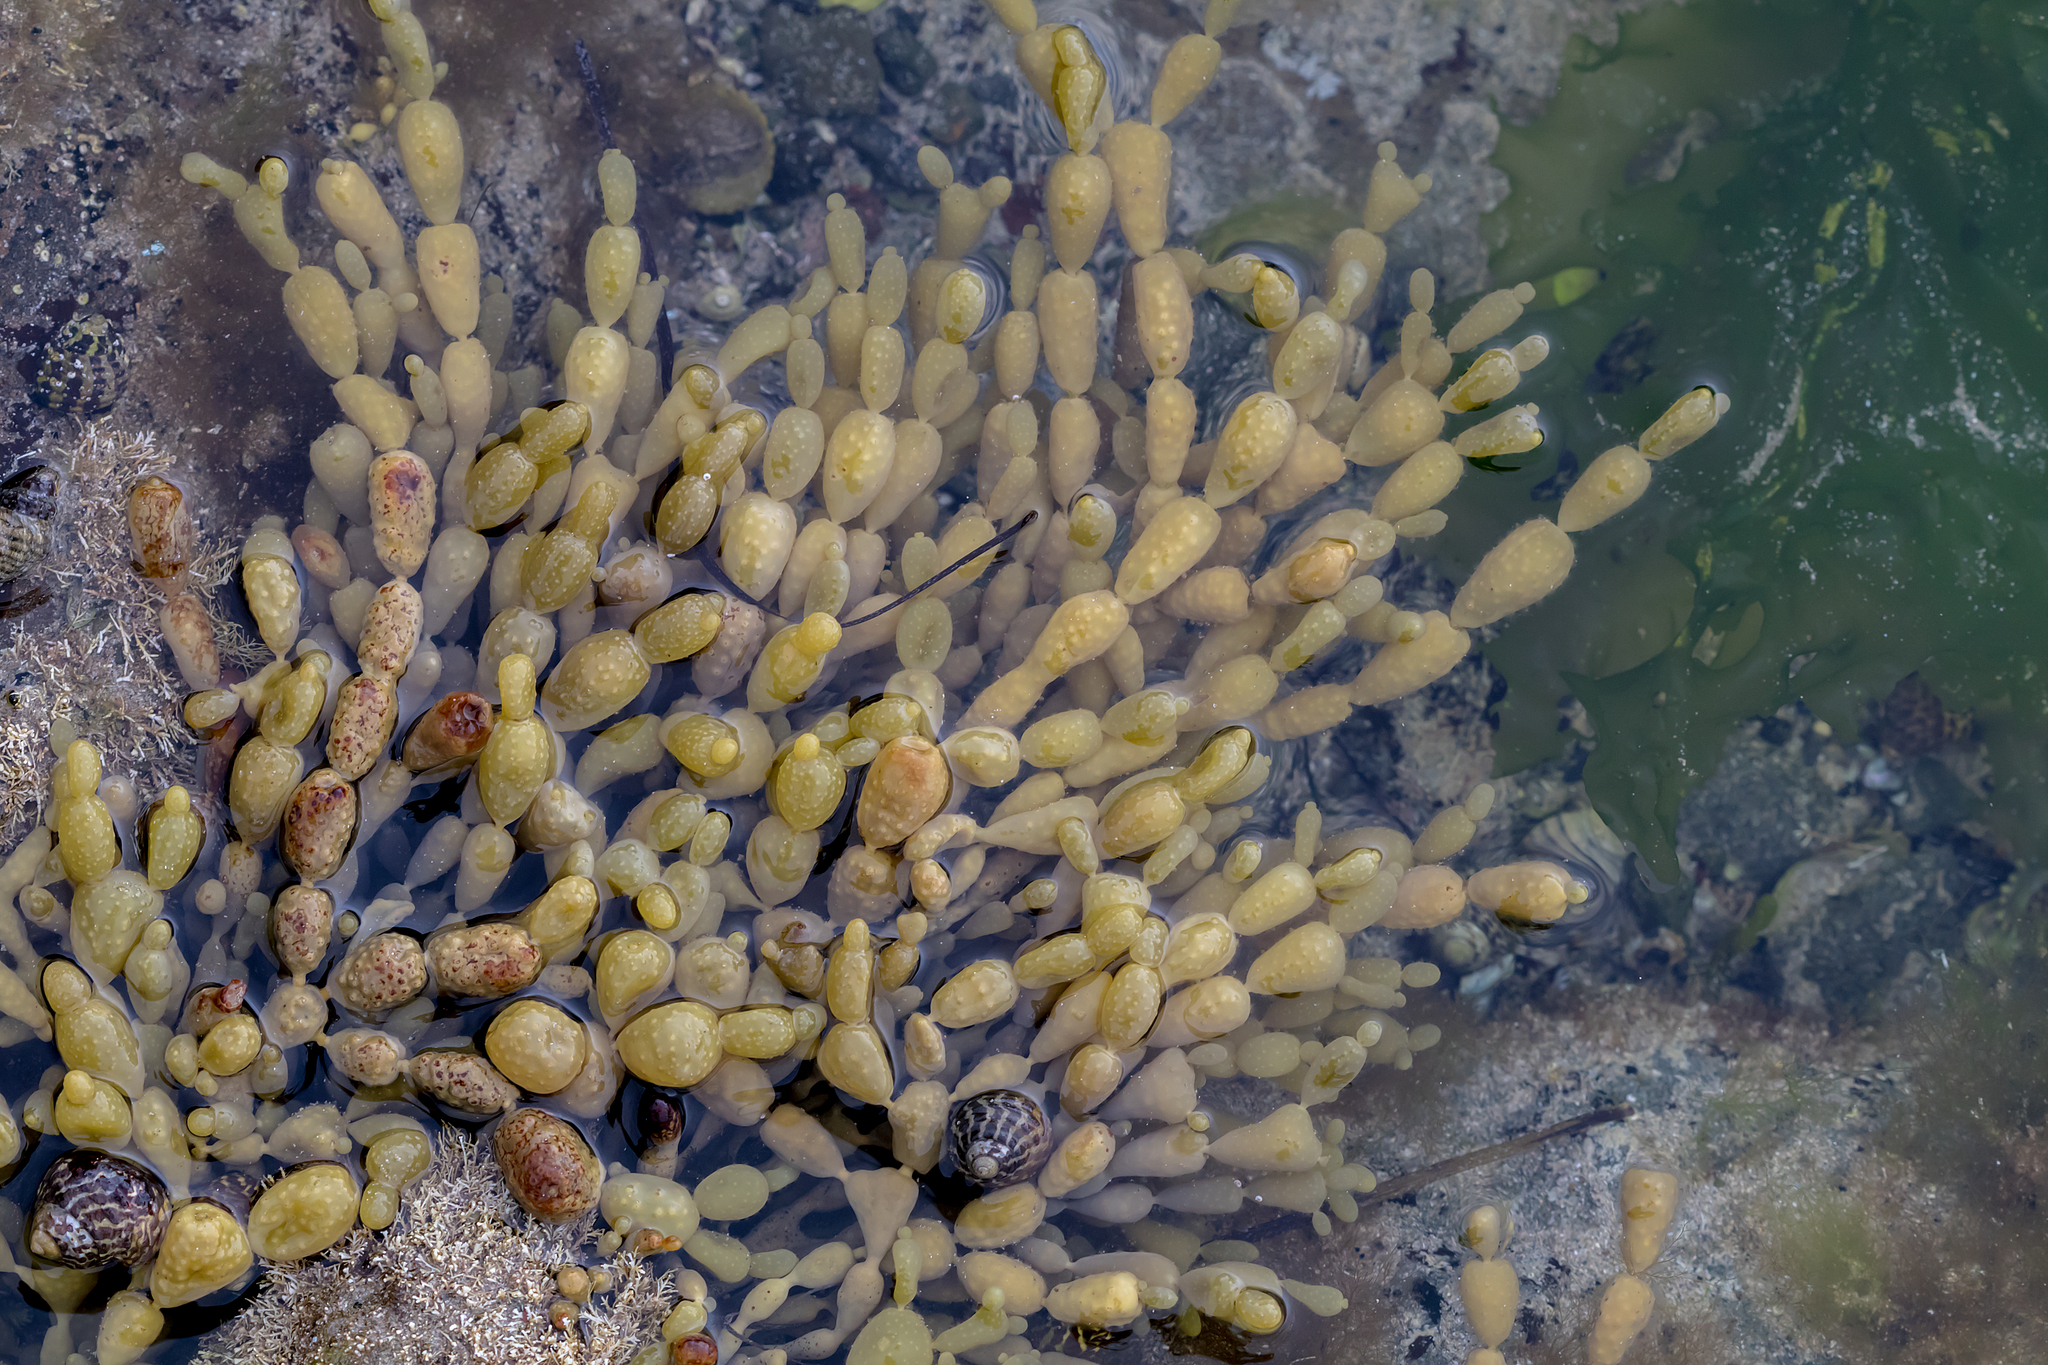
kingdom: Chromista
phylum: Ochrophyta
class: Phaeophyceae
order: Fucales
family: Hormosiraceae
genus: Hormosira
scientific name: Hormosira banksii
